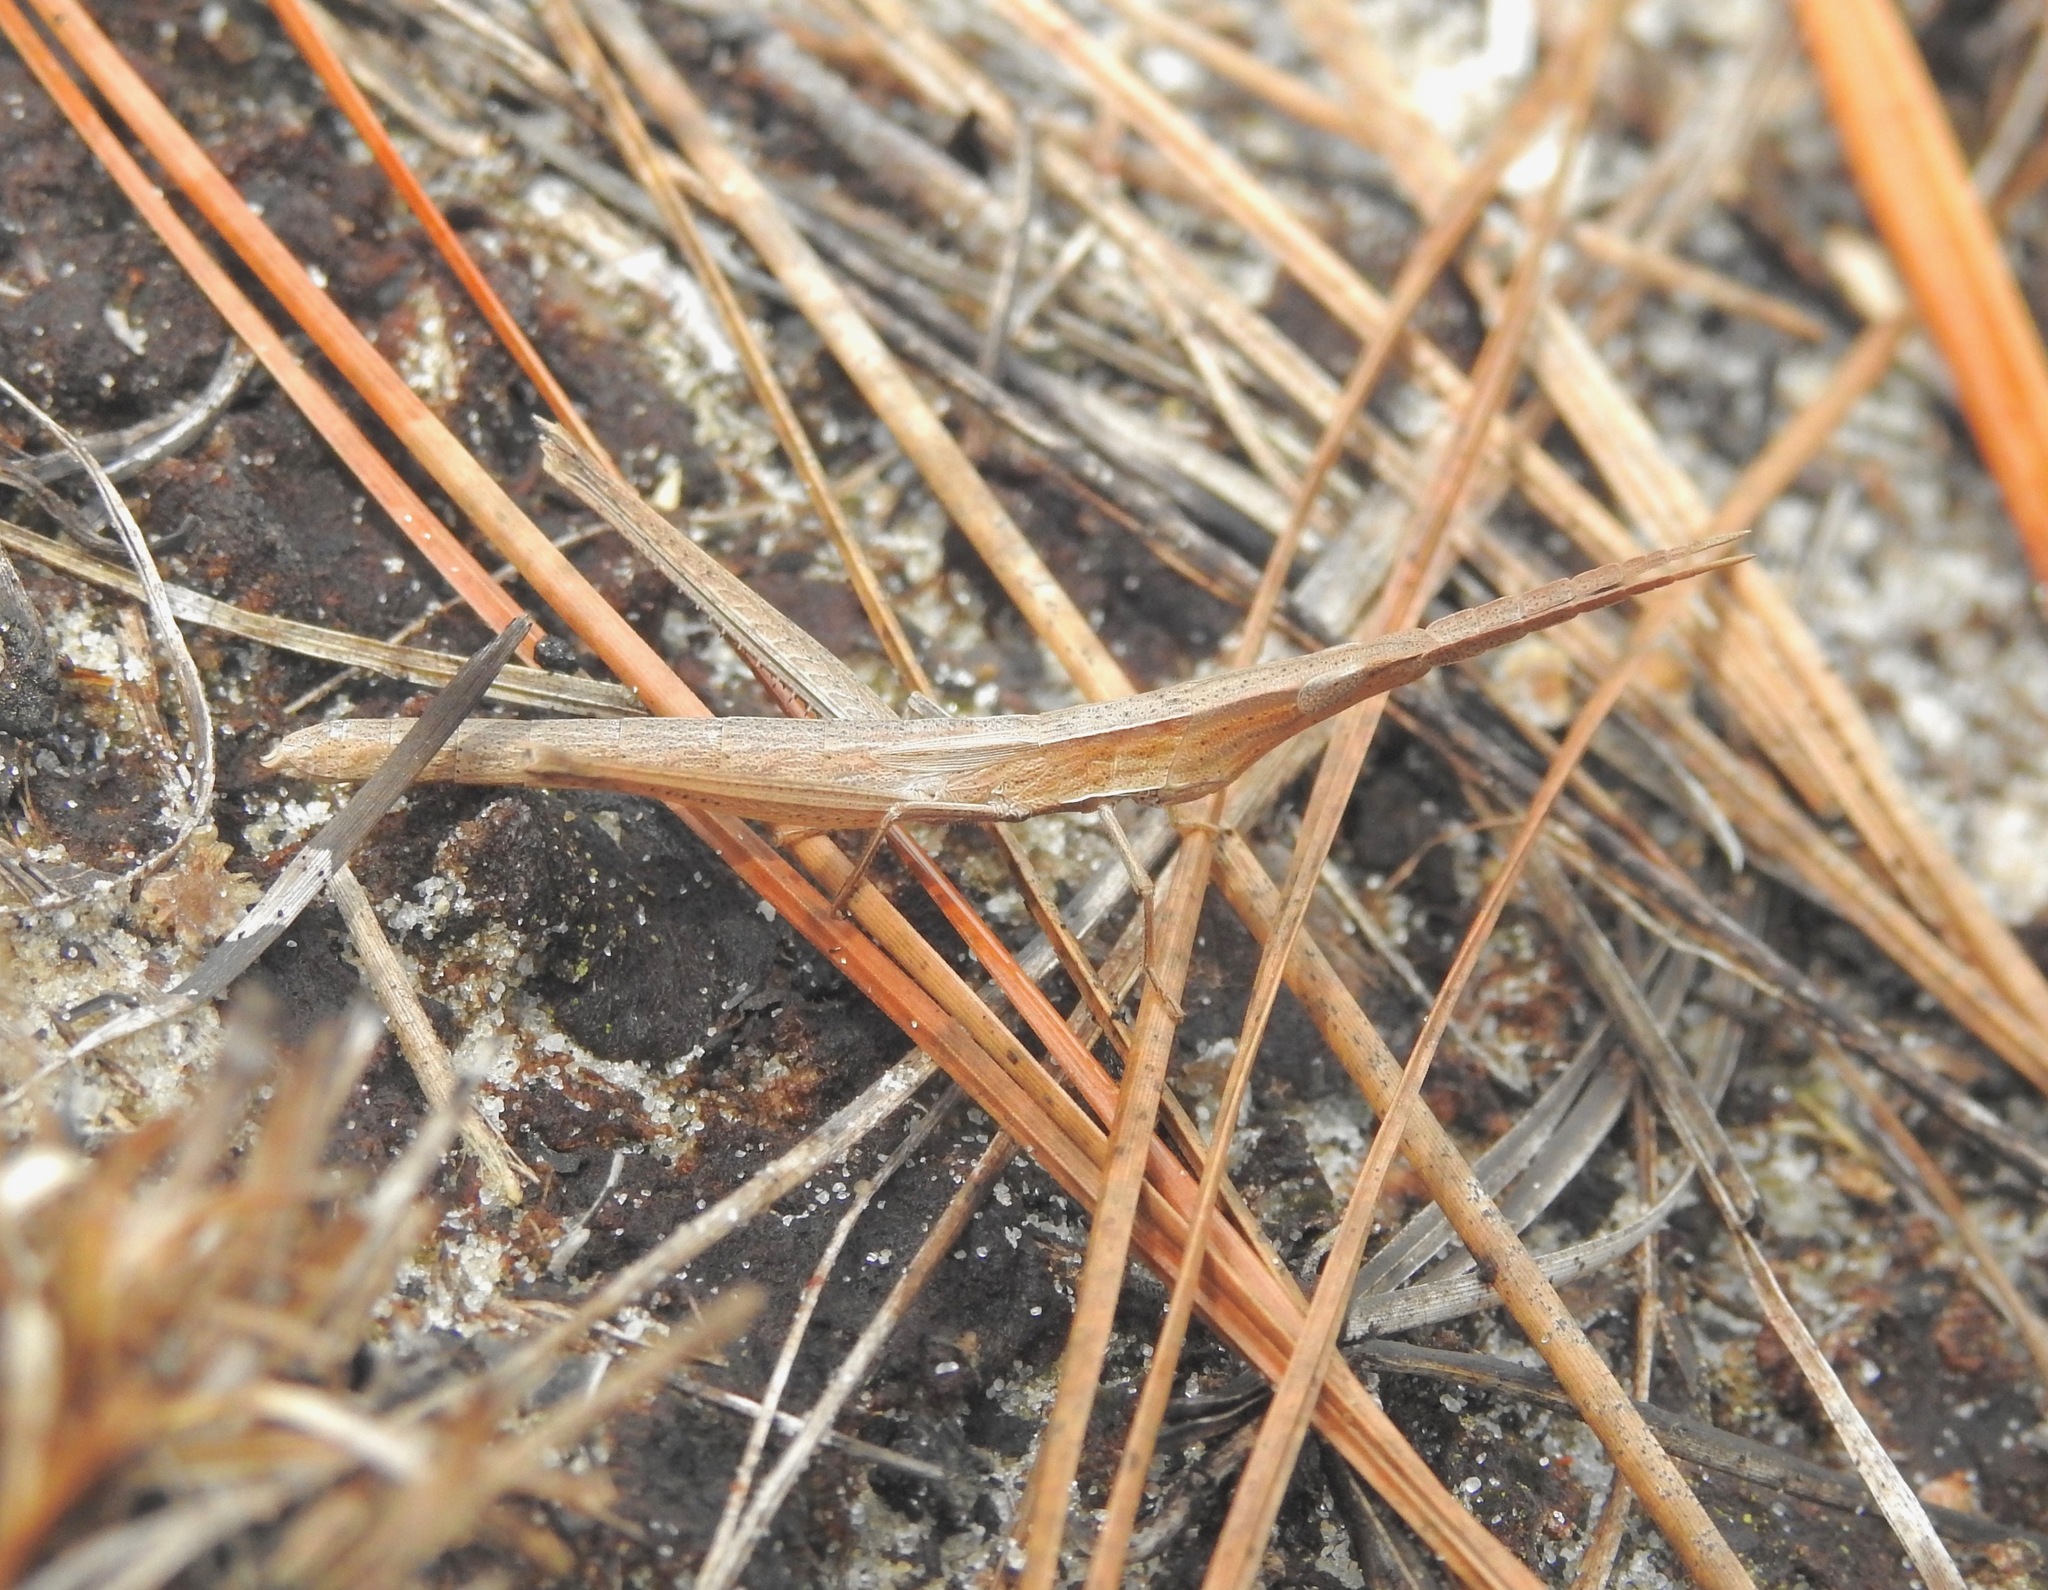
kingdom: Animalia
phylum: Arthropoda
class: Insecta
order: Orthoptera
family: Acrididae
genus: Achurum
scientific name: Achurum carinatum
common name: Long-headed toothpick grasshopper
